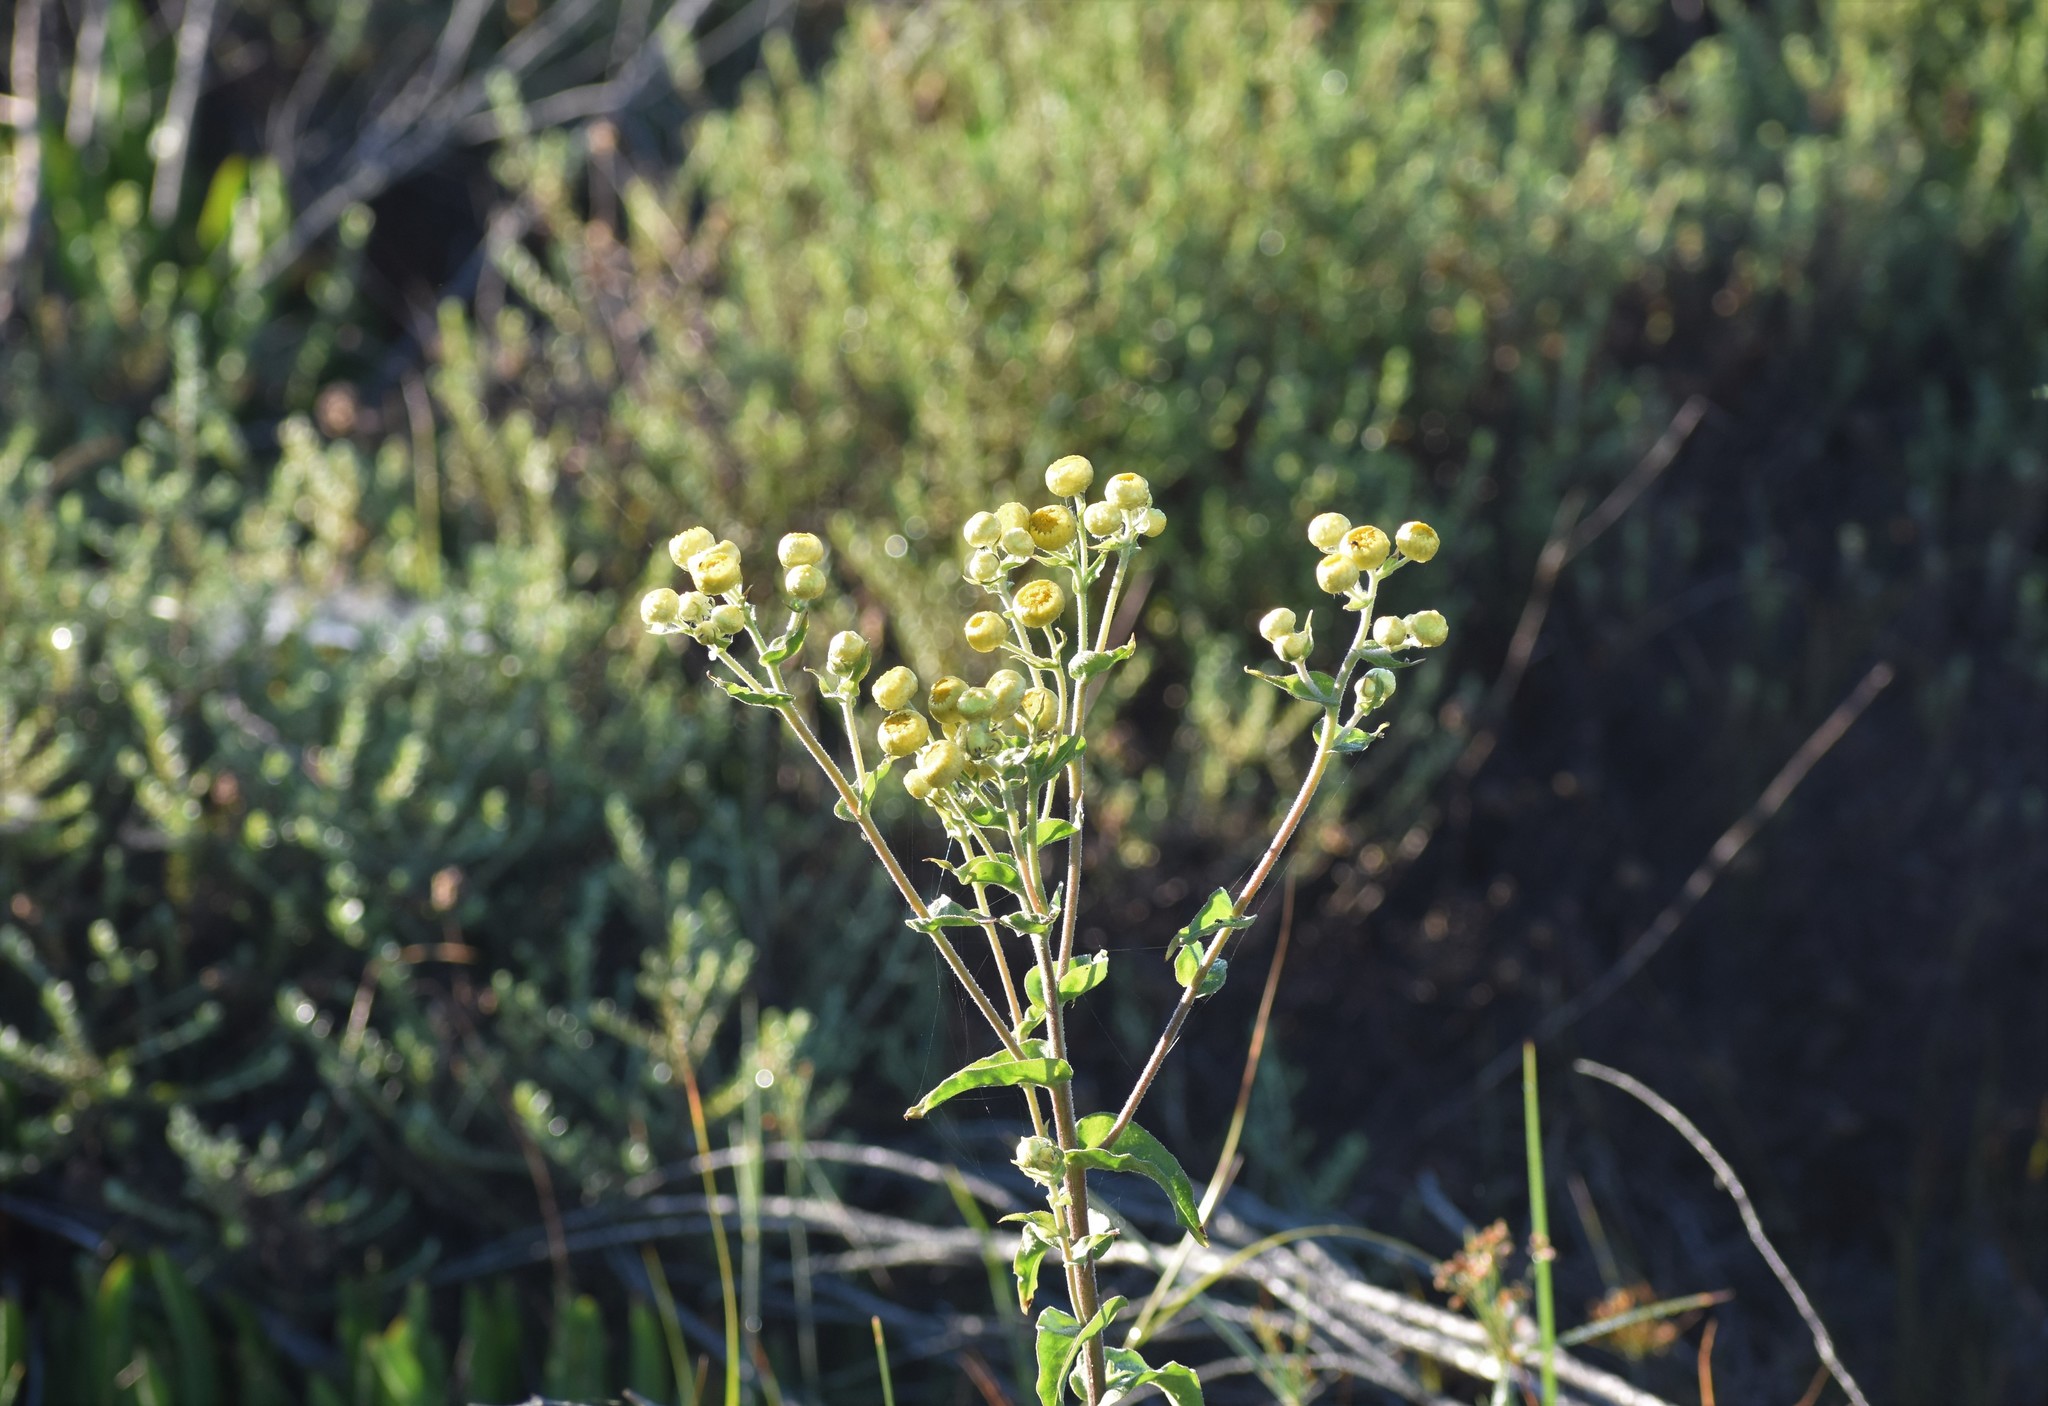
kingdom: Plantae
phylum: Tracheophyta
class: Magnoliopsida
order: Asterales
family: Asteraceae
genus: Helichrysum
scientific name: Helichrysum foetidum
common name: Stinking everlasting
